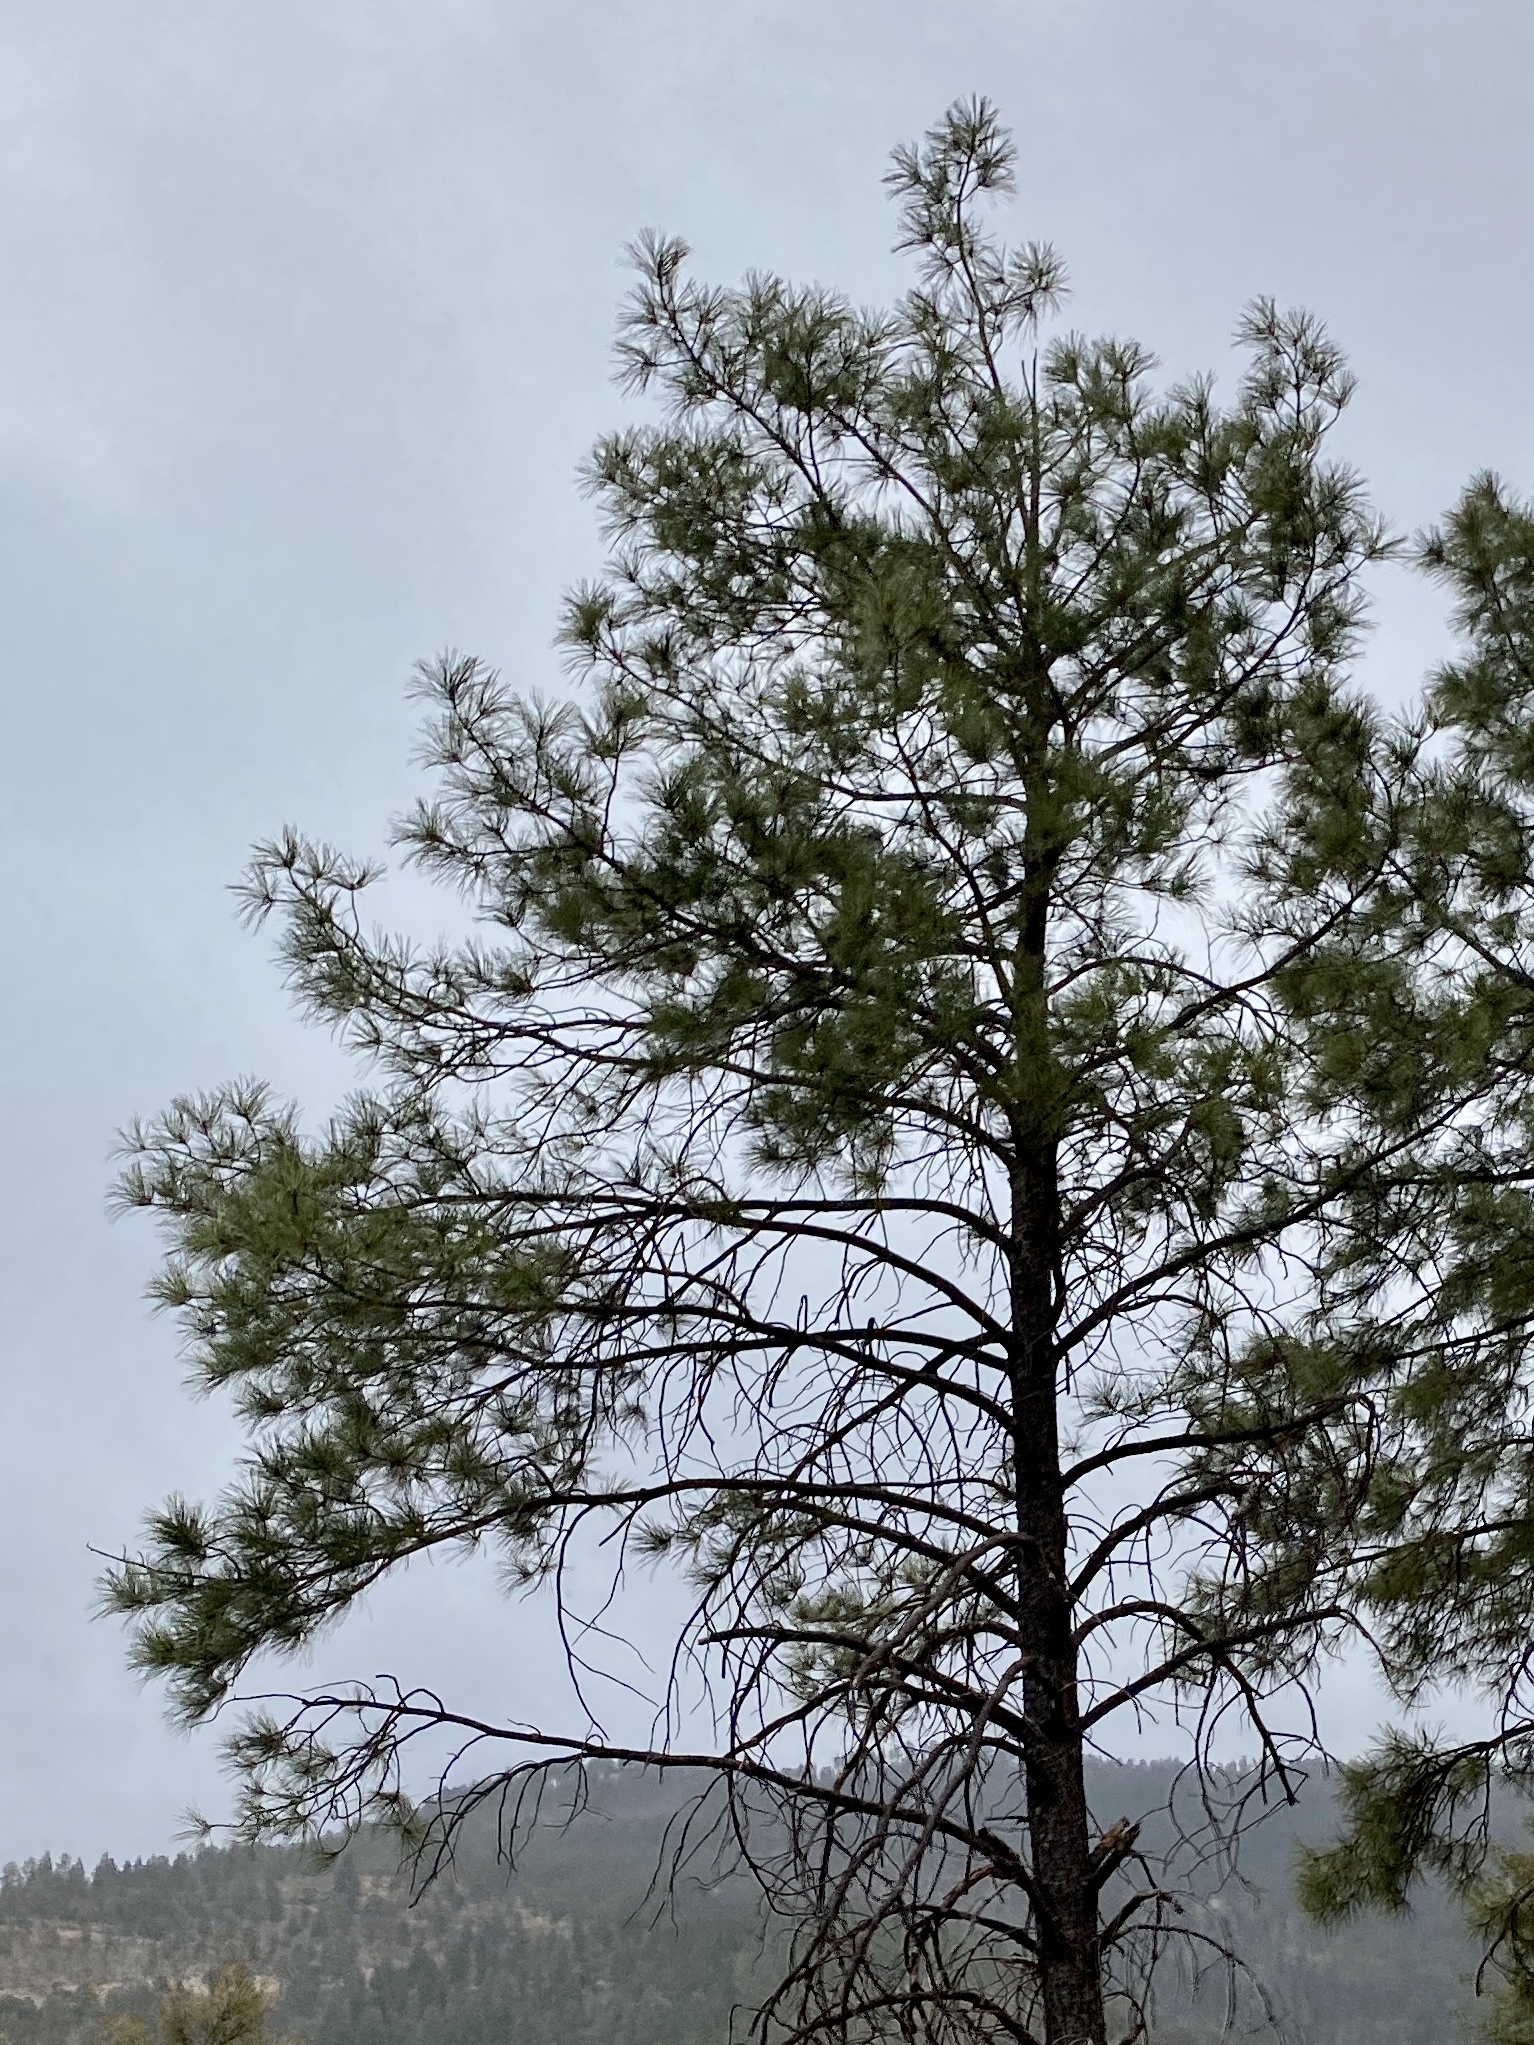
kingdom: Plantae
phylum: Tracheophyta
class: Pinopsida
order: Pinales
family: Pinaceae
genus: Pinus
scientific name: Pinus ponderosa
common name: Western yellow-pine
